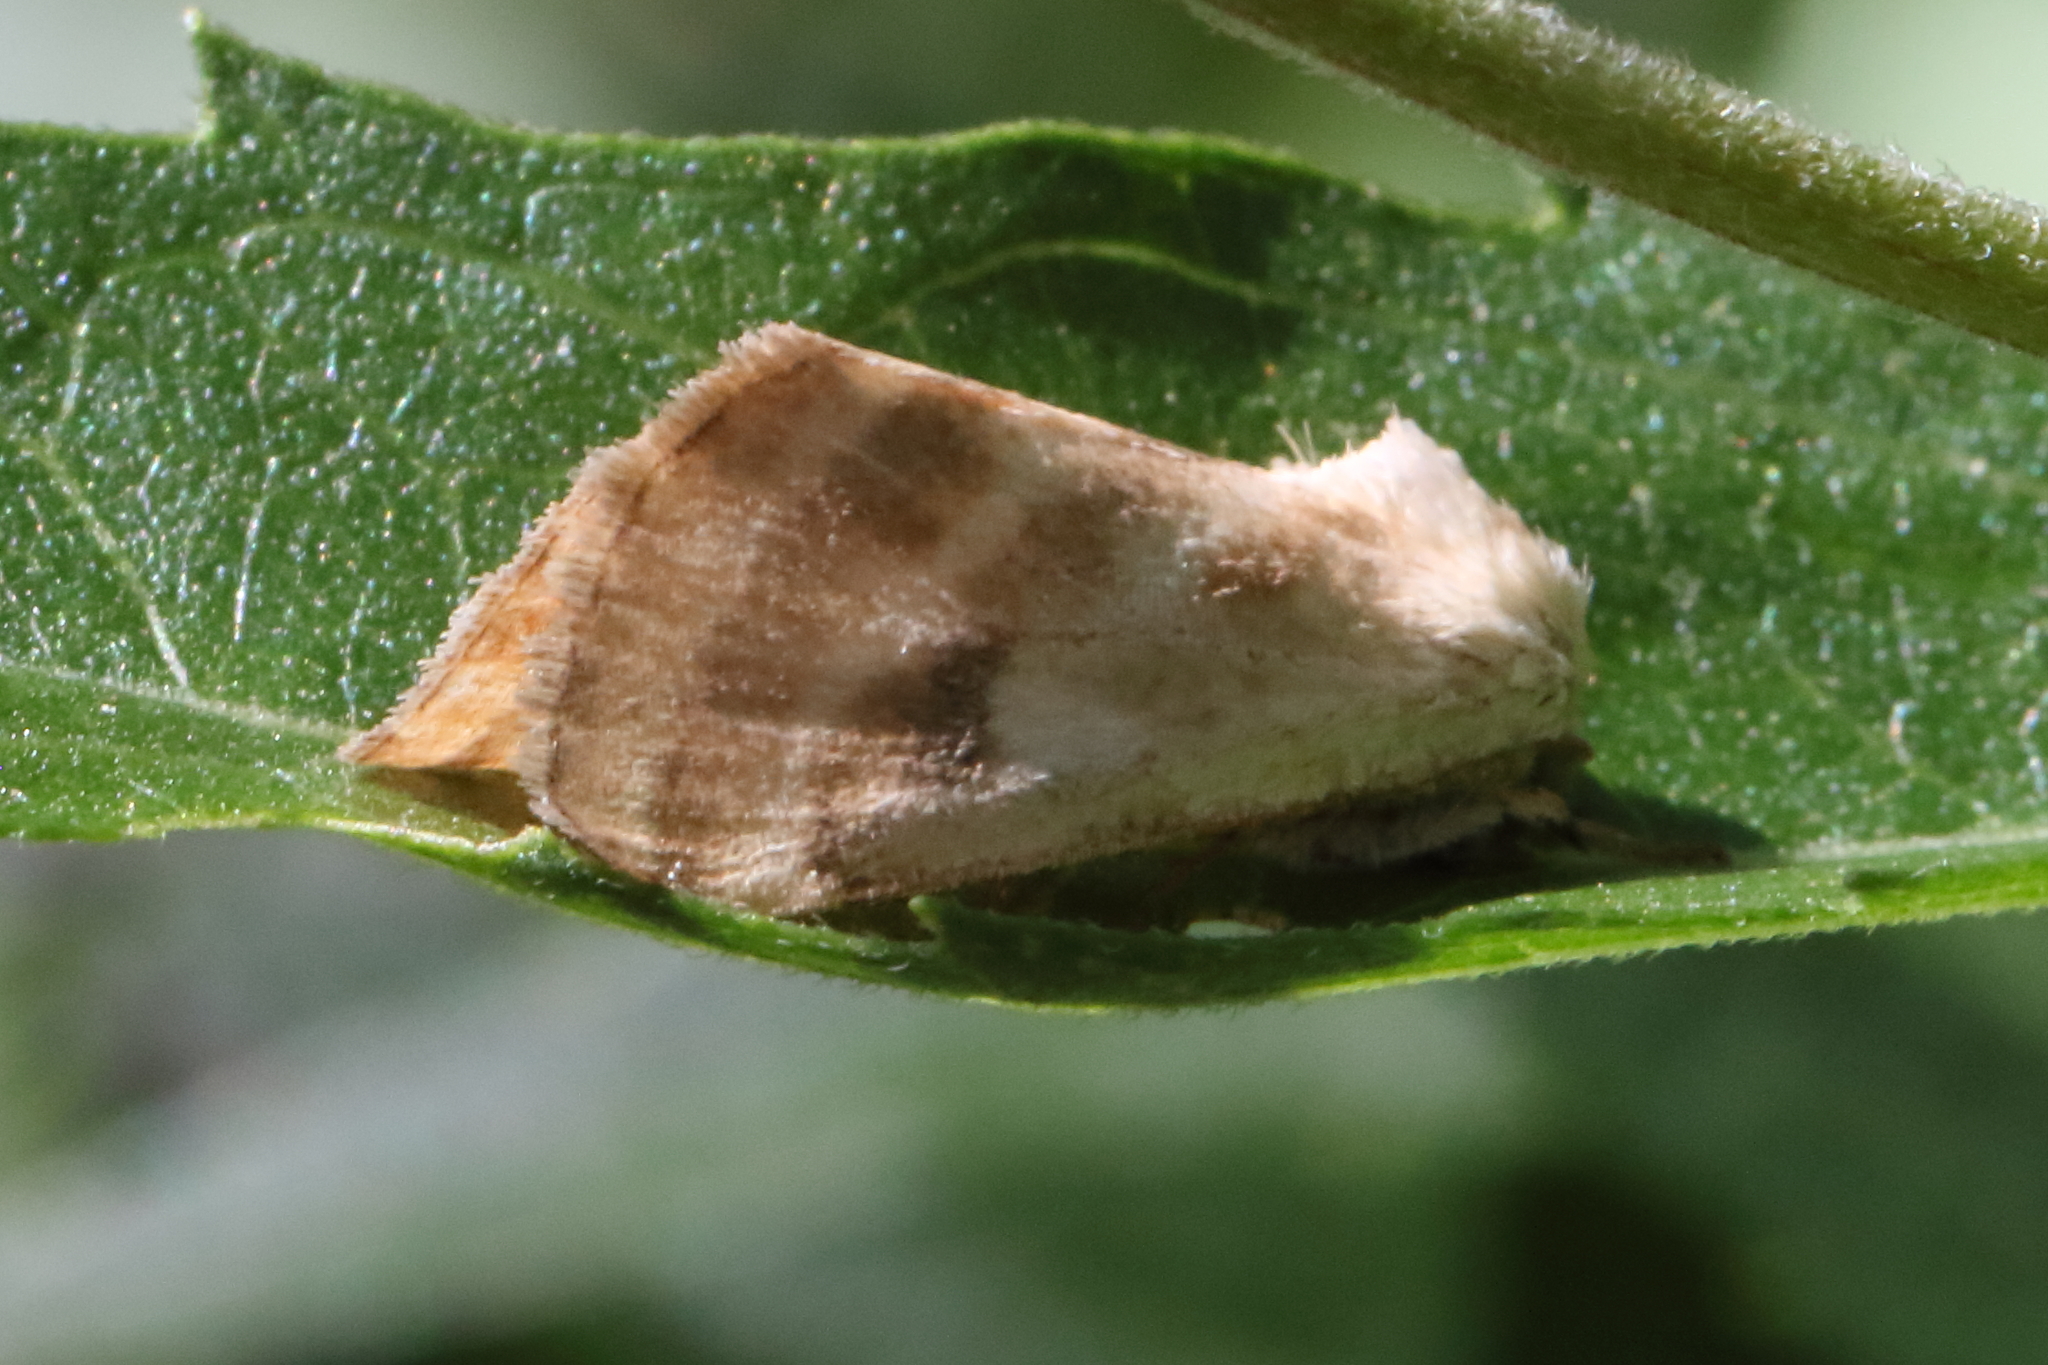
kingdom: Animalia
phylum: Arthropoda
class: Insecta
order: Lepidoptera
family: Noctuidae
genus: Schinia
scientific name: Schinia trifascia
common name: Three-lined flower moth
